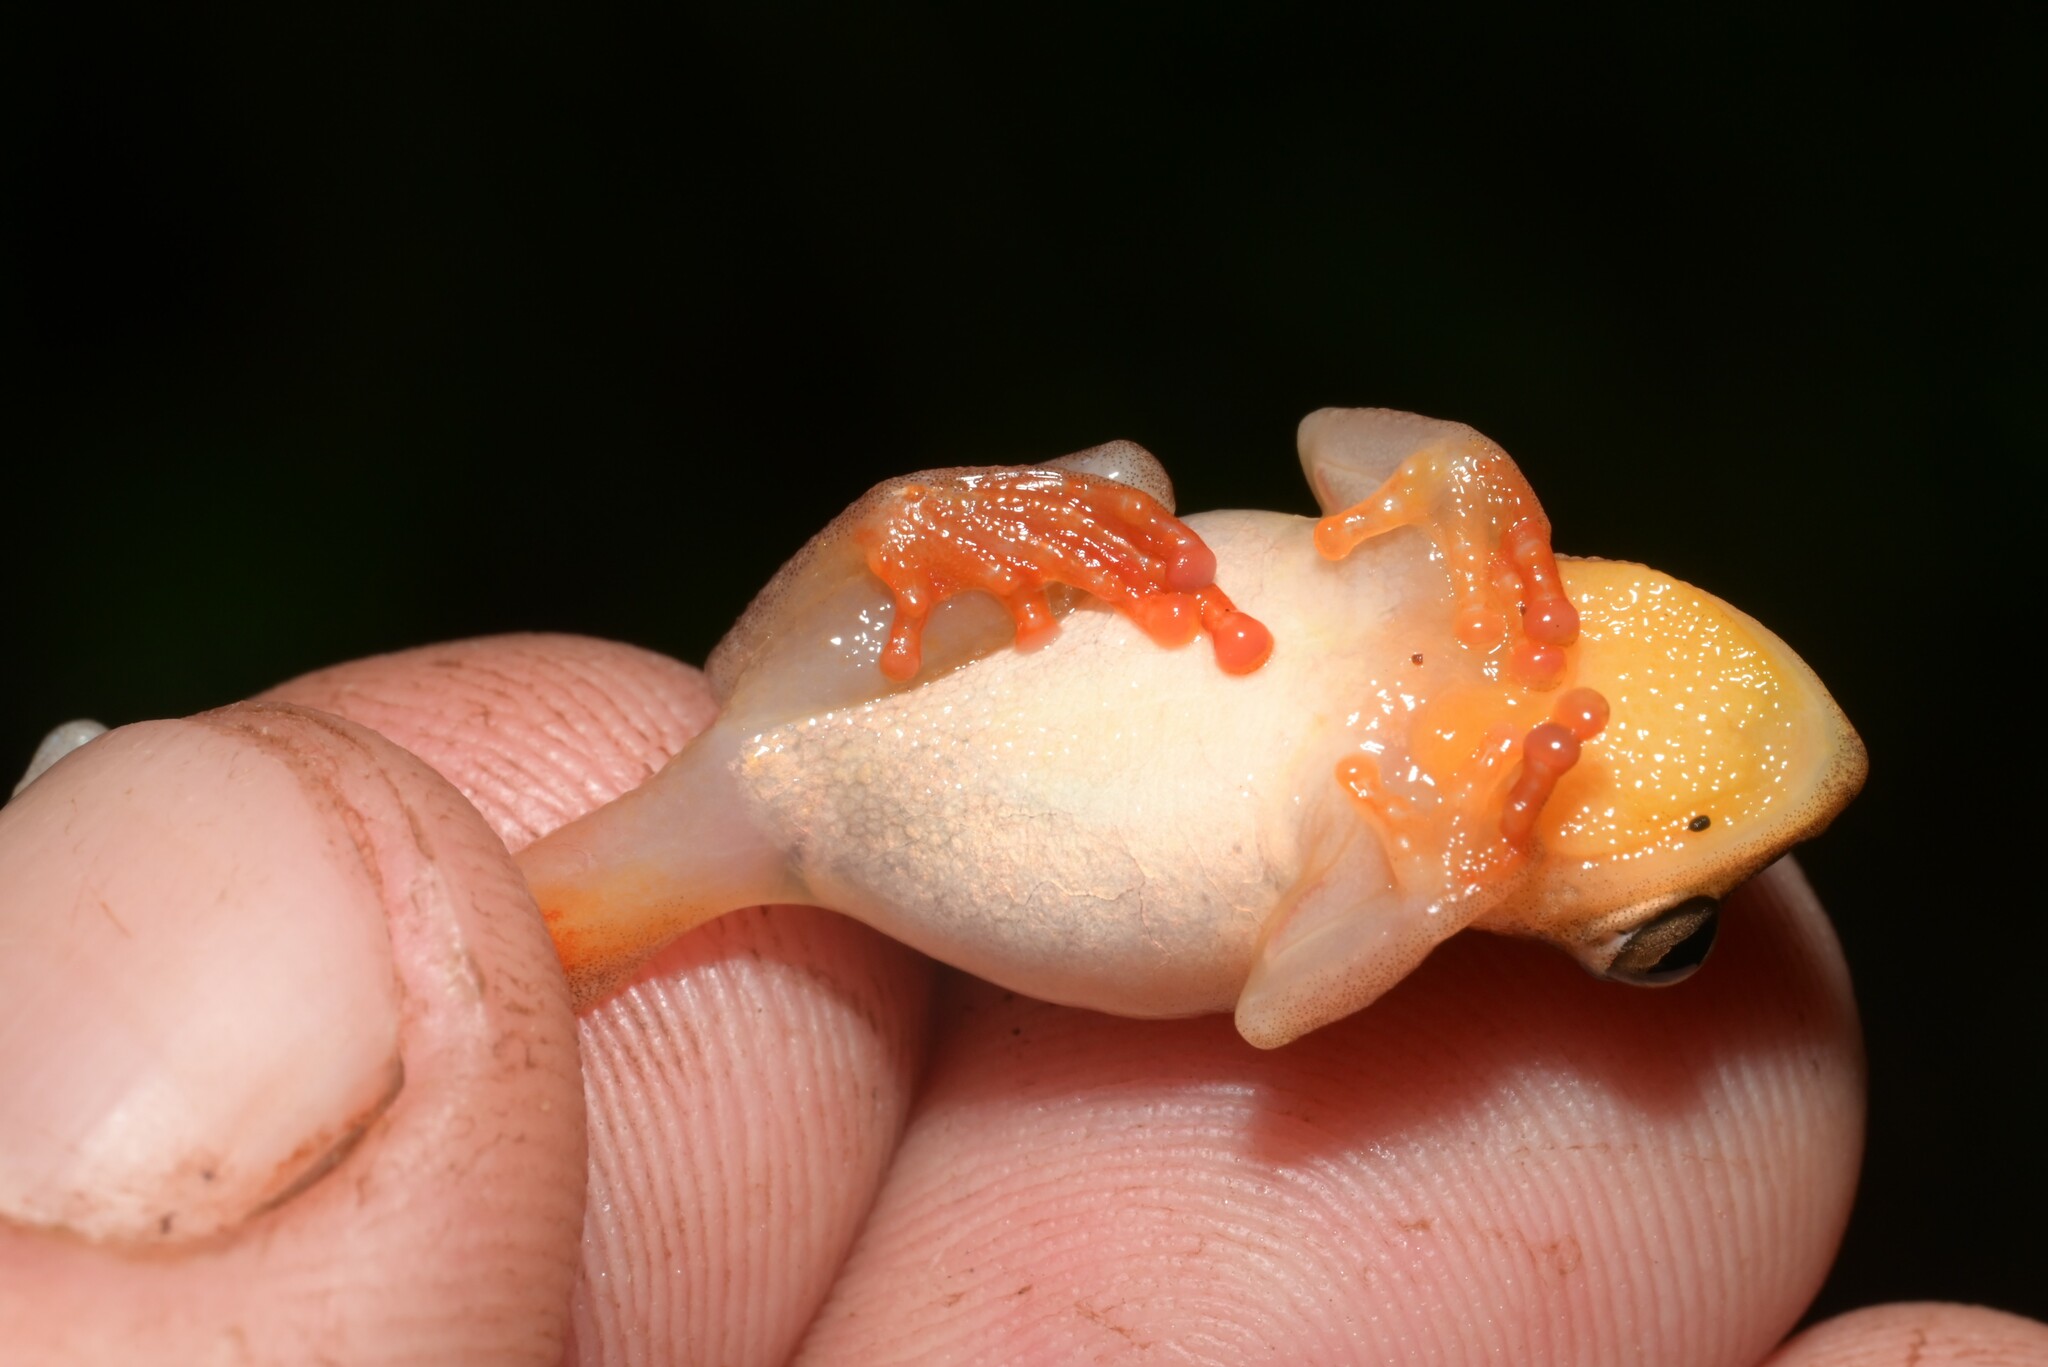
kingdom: Animalia
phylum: Chordata
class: Amphibia
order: Anura
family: Hyperoliidae
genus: Hyperolius
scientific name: Hyperolius substriatus
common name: Spotted reed frog
